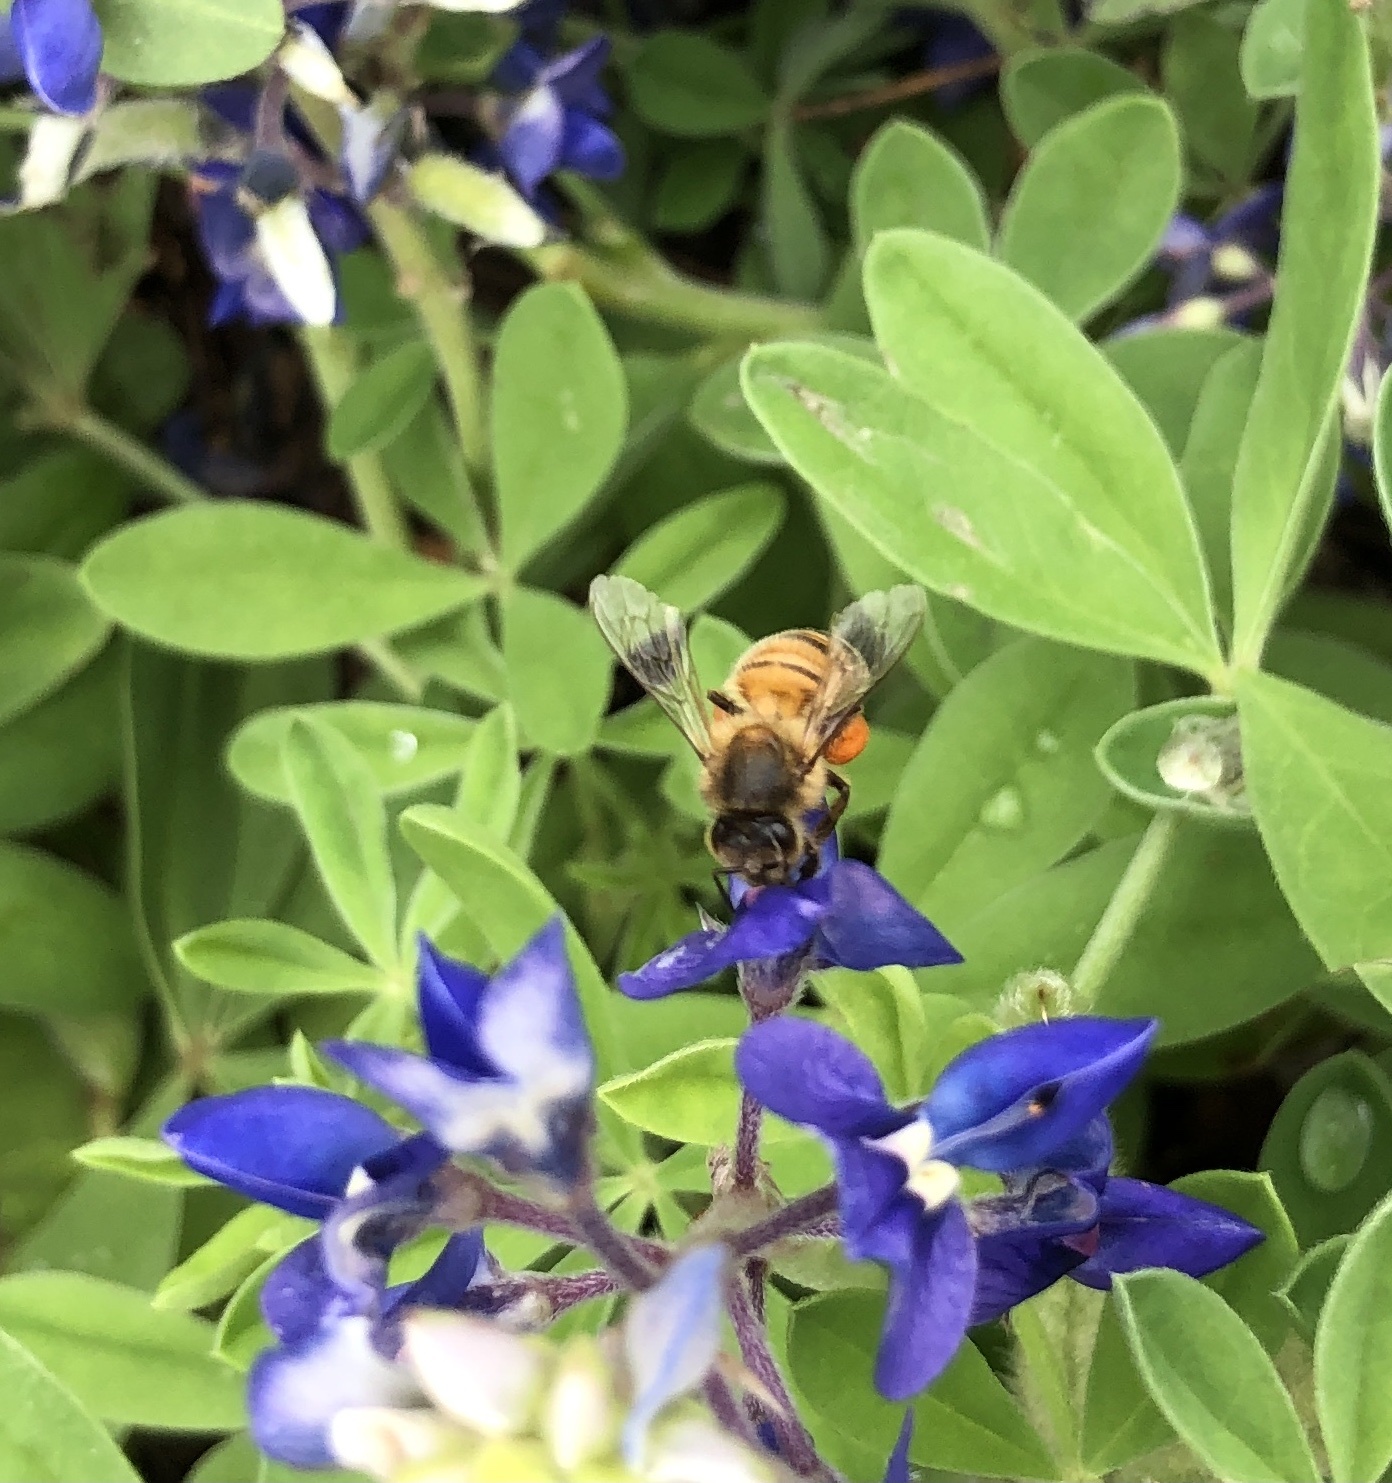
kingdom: Animalia
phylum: Arthropoda
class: Insecta
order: Hymenoptera
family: Apidae
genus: Apis
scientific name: Apis mellifera
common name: Honey bee
